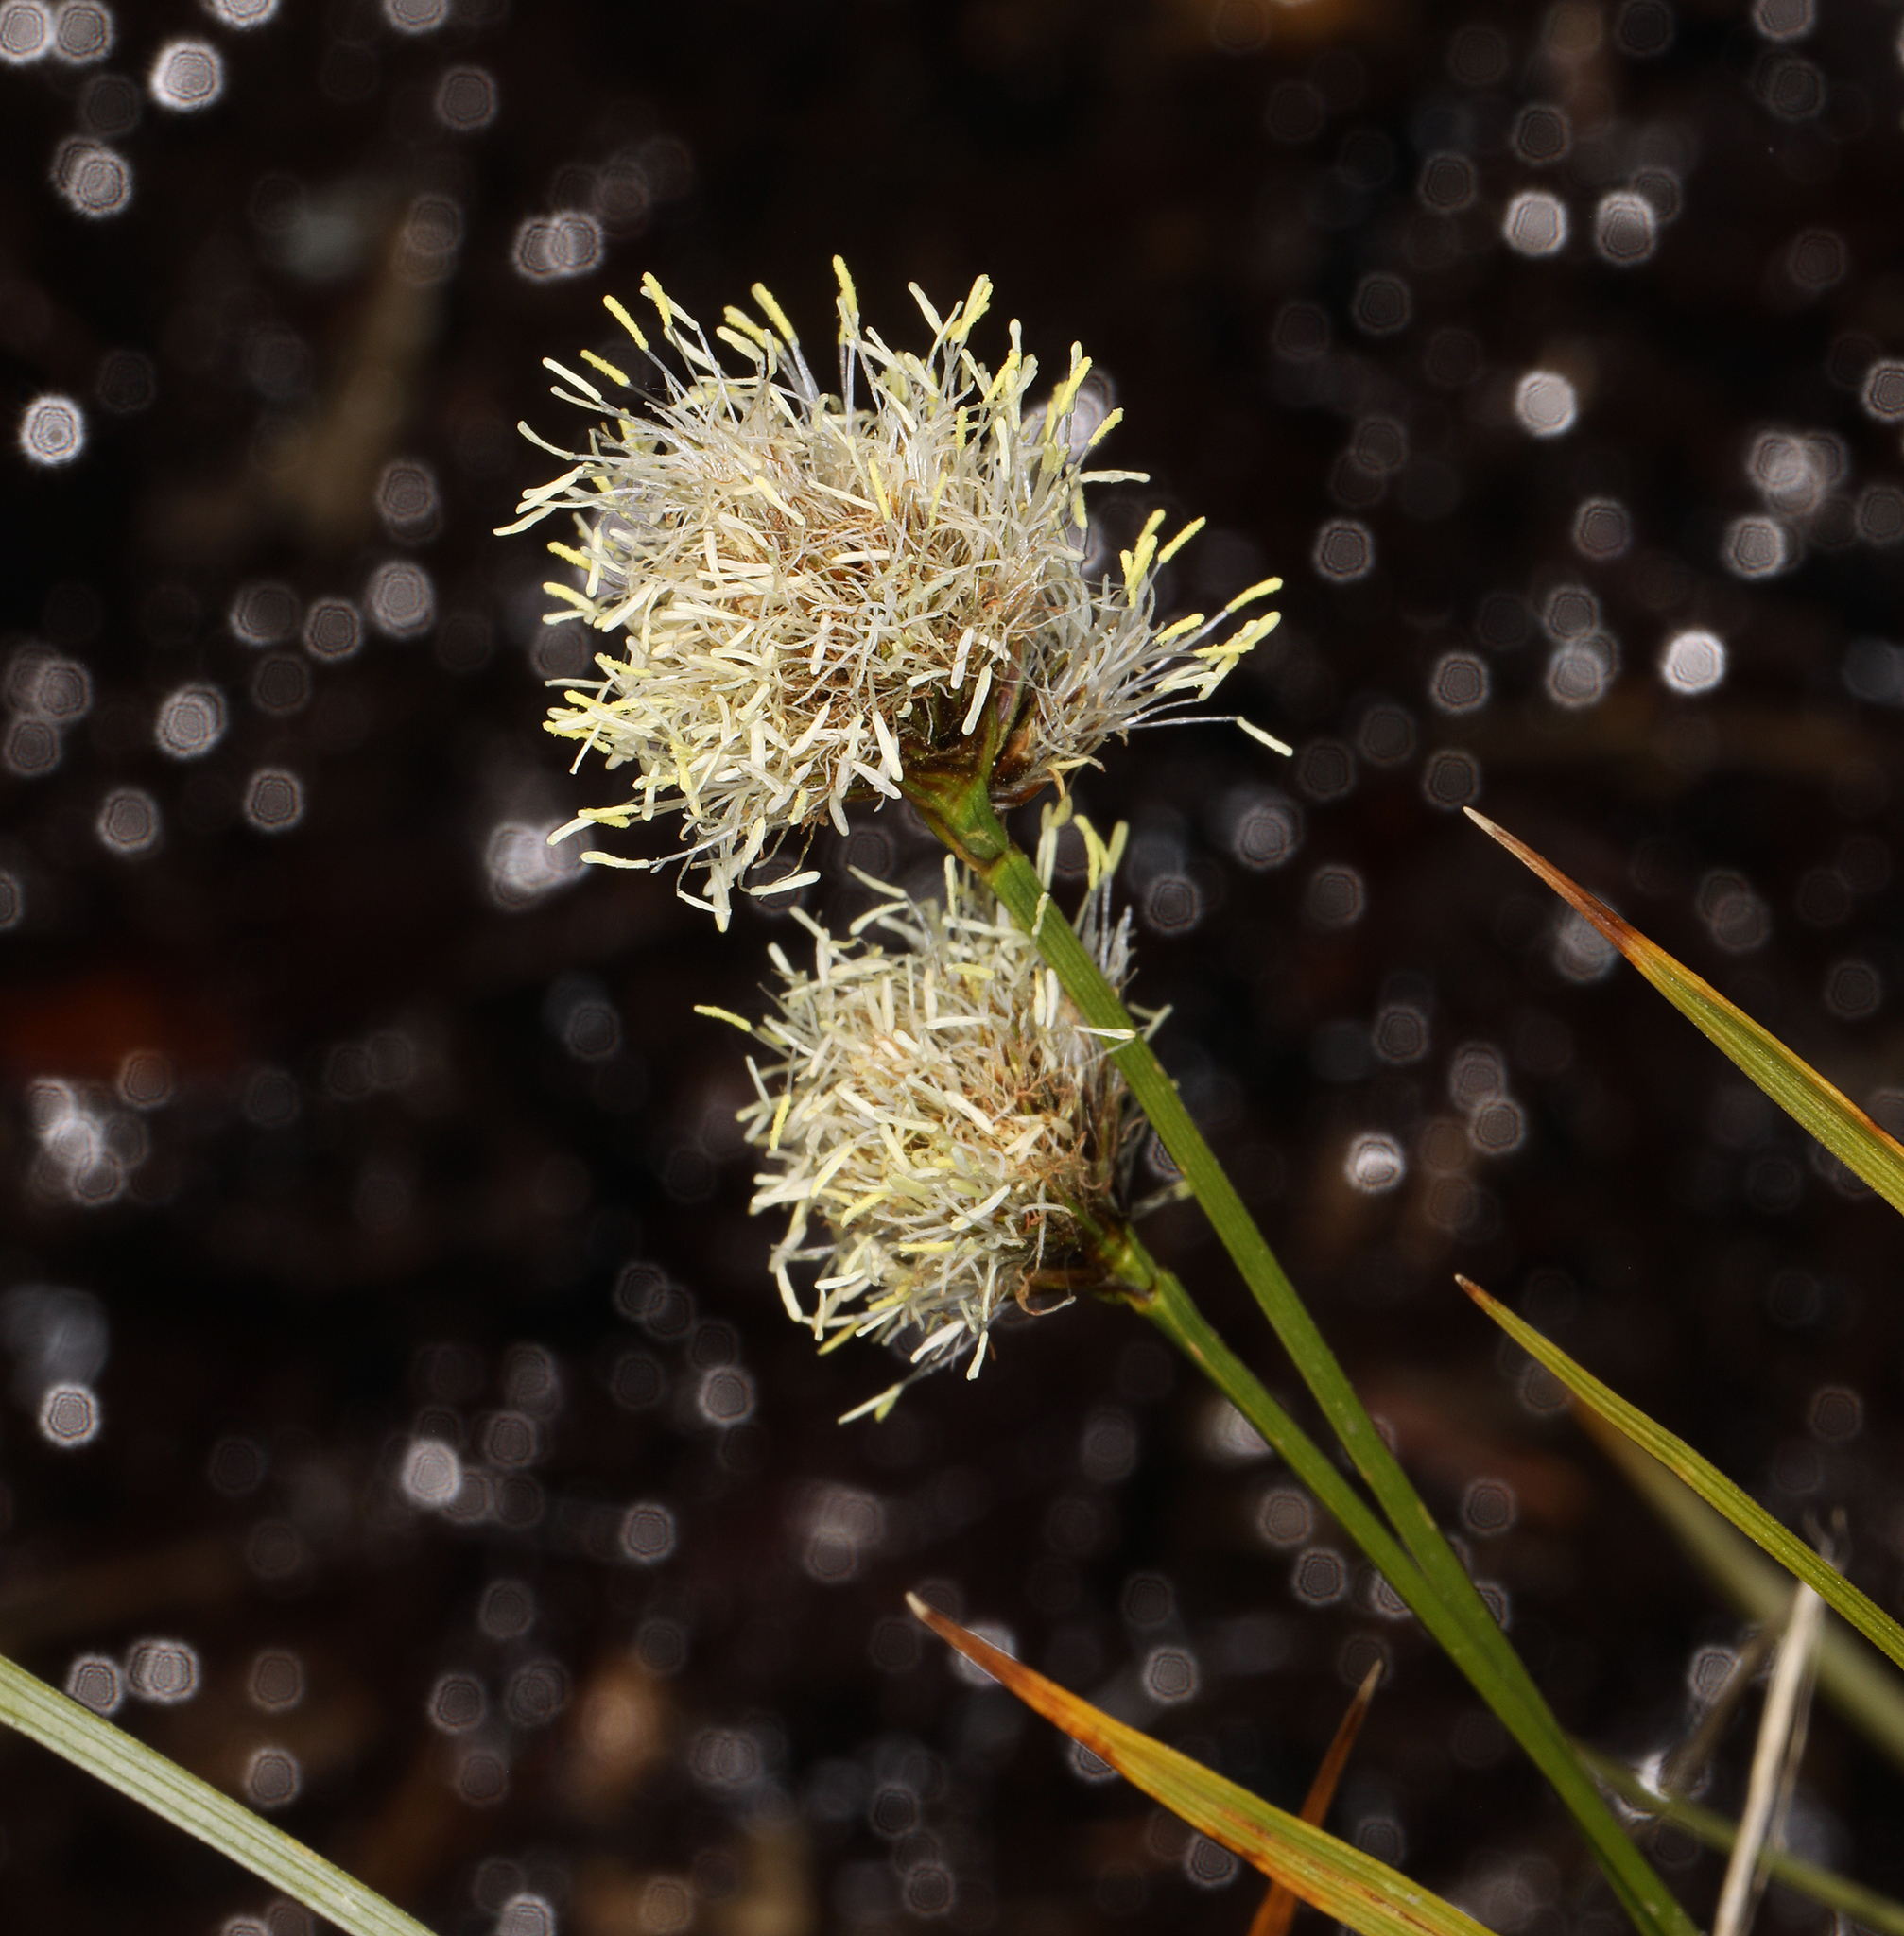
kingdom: Plantae
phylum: Tracheophyta
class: Liliopsida
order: Poales
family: Cyperaceae
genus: Calliscirpus
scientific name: Calliscirpus criniger
